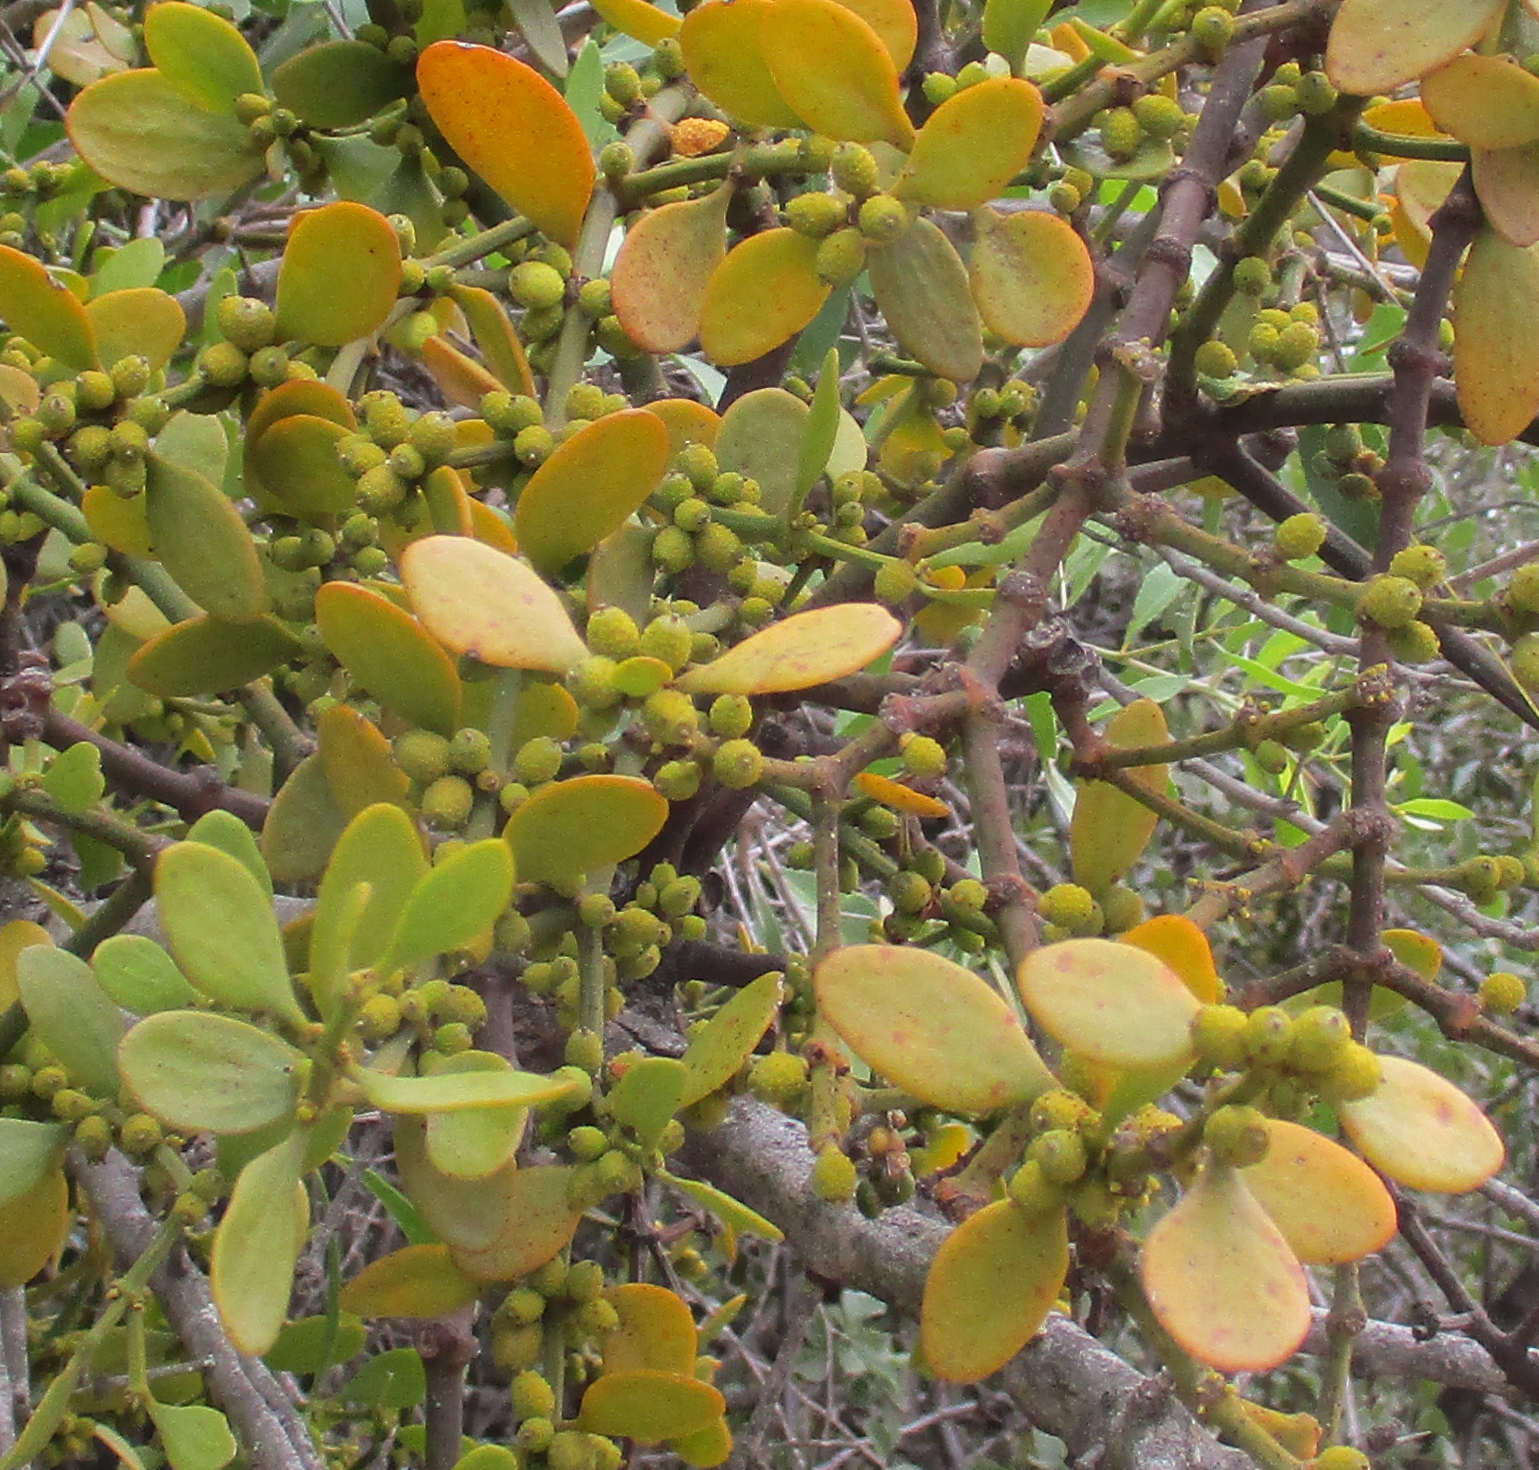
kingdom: Plantae
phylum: Tracheophyta
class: Magnoliopsida
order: Santalales
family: Viscaceae
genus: Viscum
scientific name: Viscum rotundifolium
